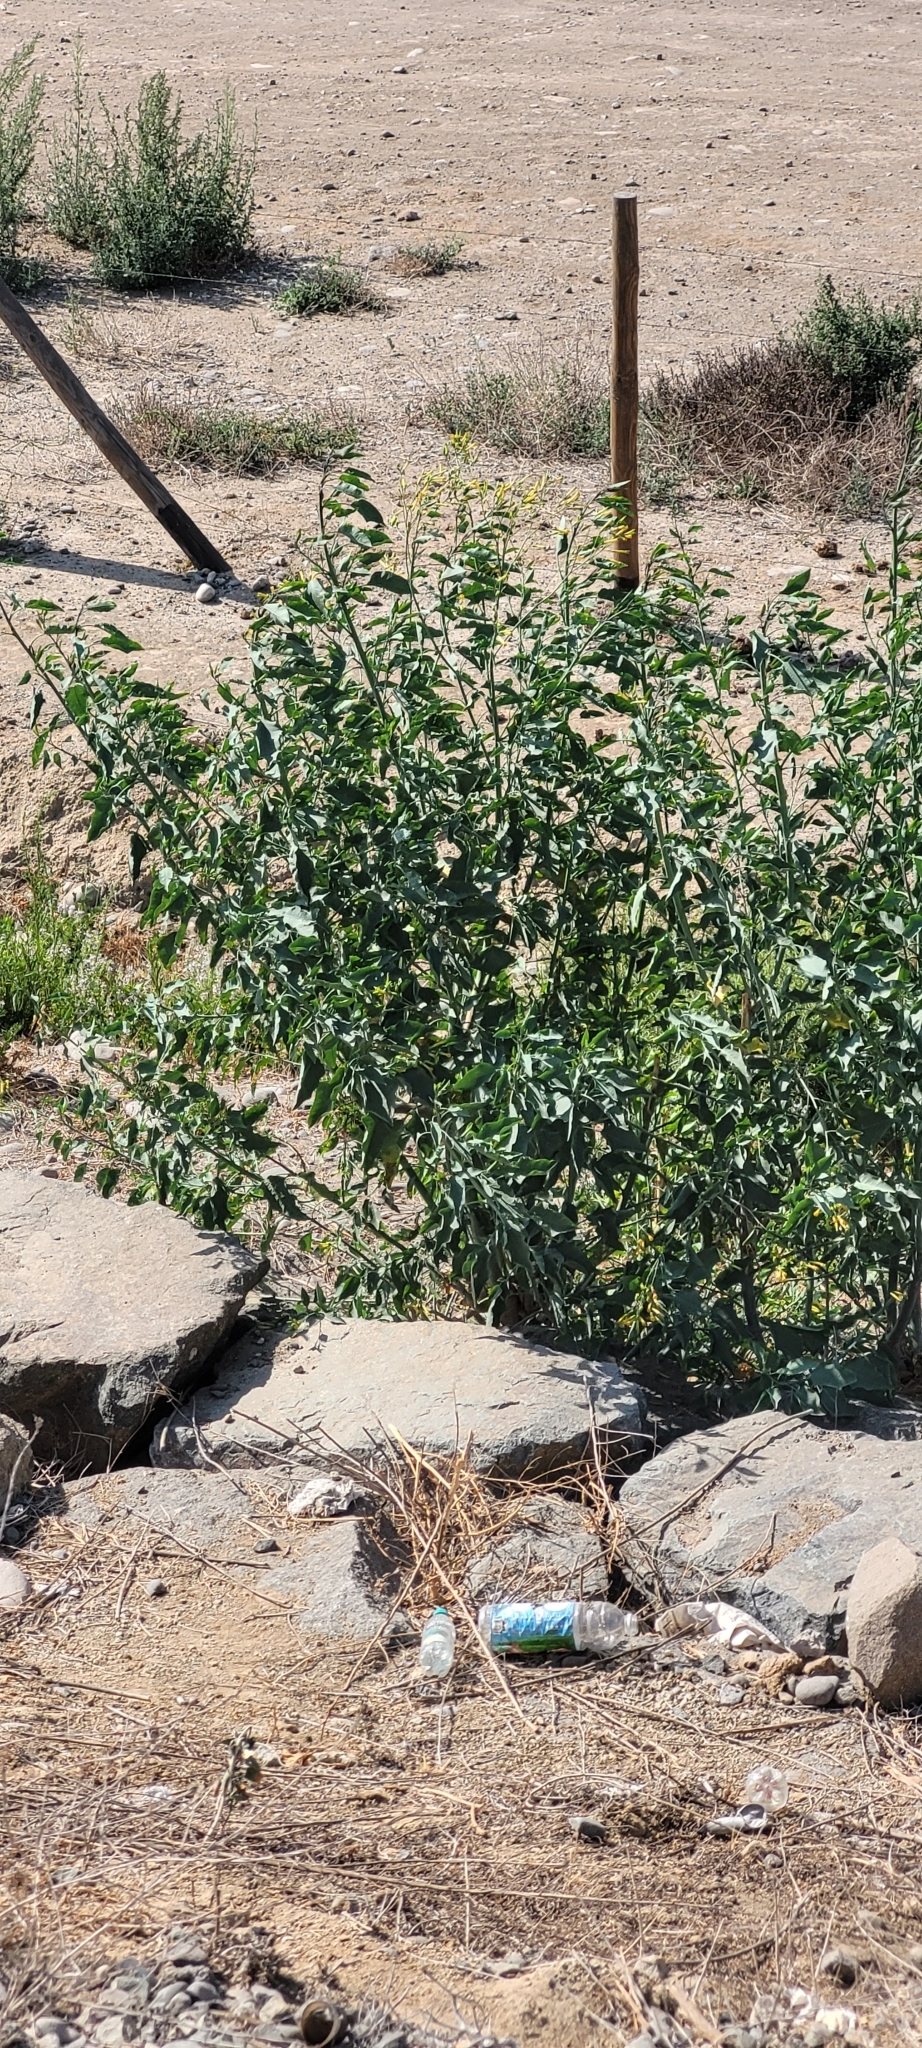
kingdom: Plantae
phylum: Tracheophyta
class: Magnoliopsida
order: Solanales
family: Solanaceae
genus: Nicotiana
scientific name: Nicotiana glauca
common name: Tree tobacco
